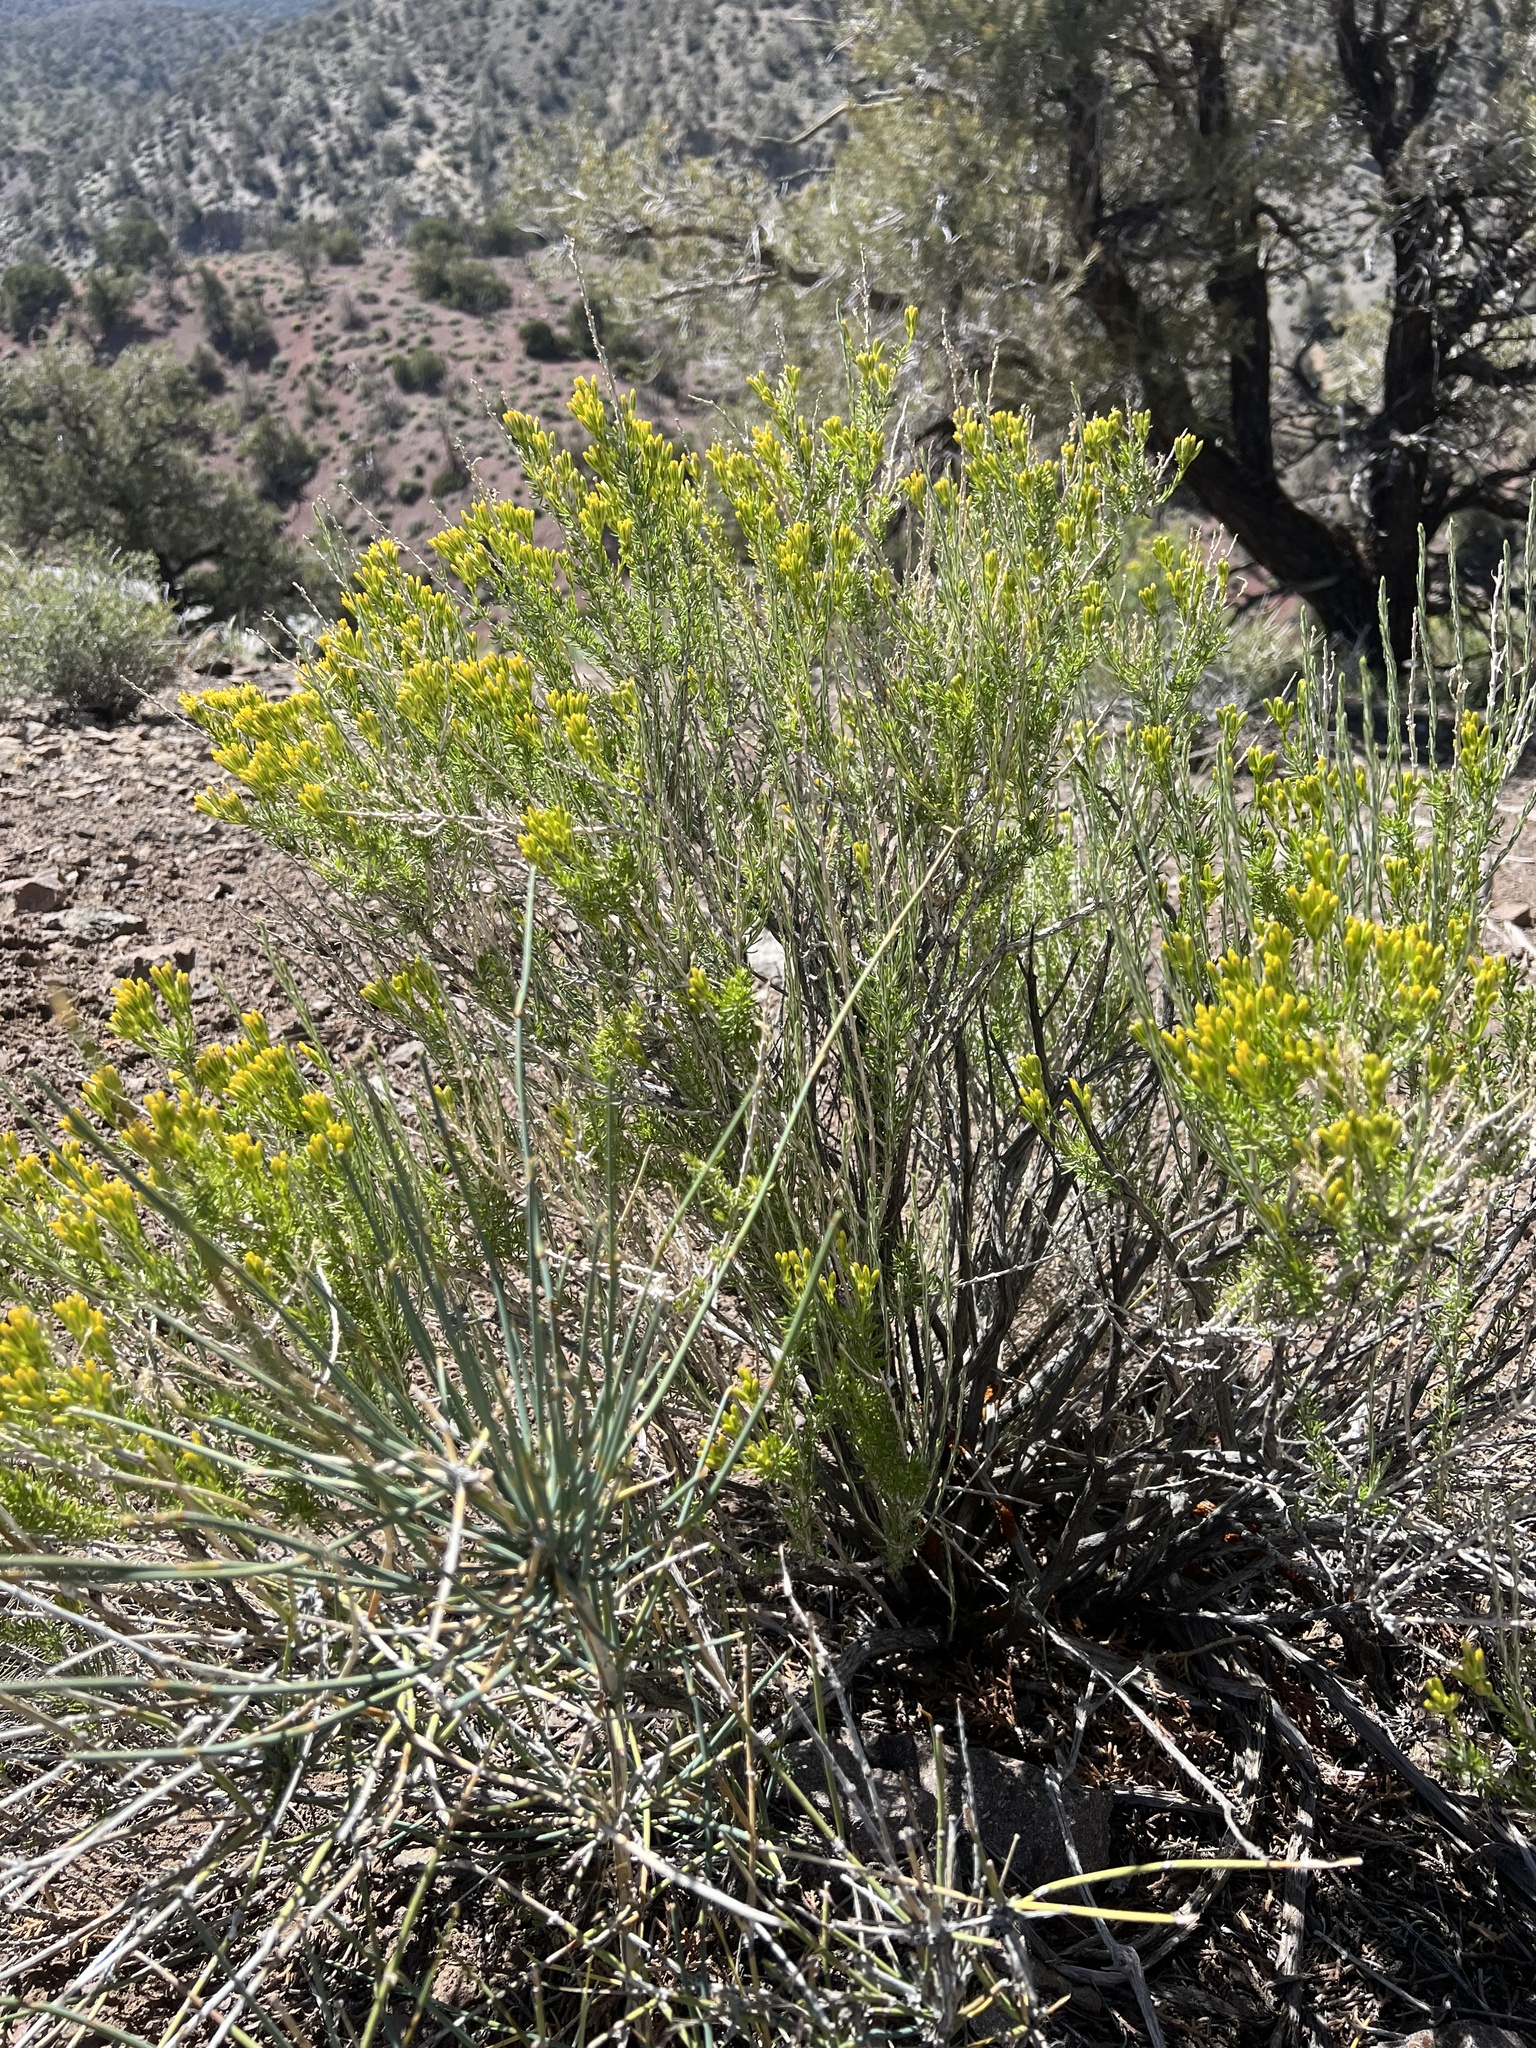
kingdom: Plantae
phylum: Tracheophyta
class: Magnoliopsida
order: Asterales
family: Asteraceae
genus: Tetradymia
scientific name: Tetradymia glabrata
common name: Smooth tetradymia
